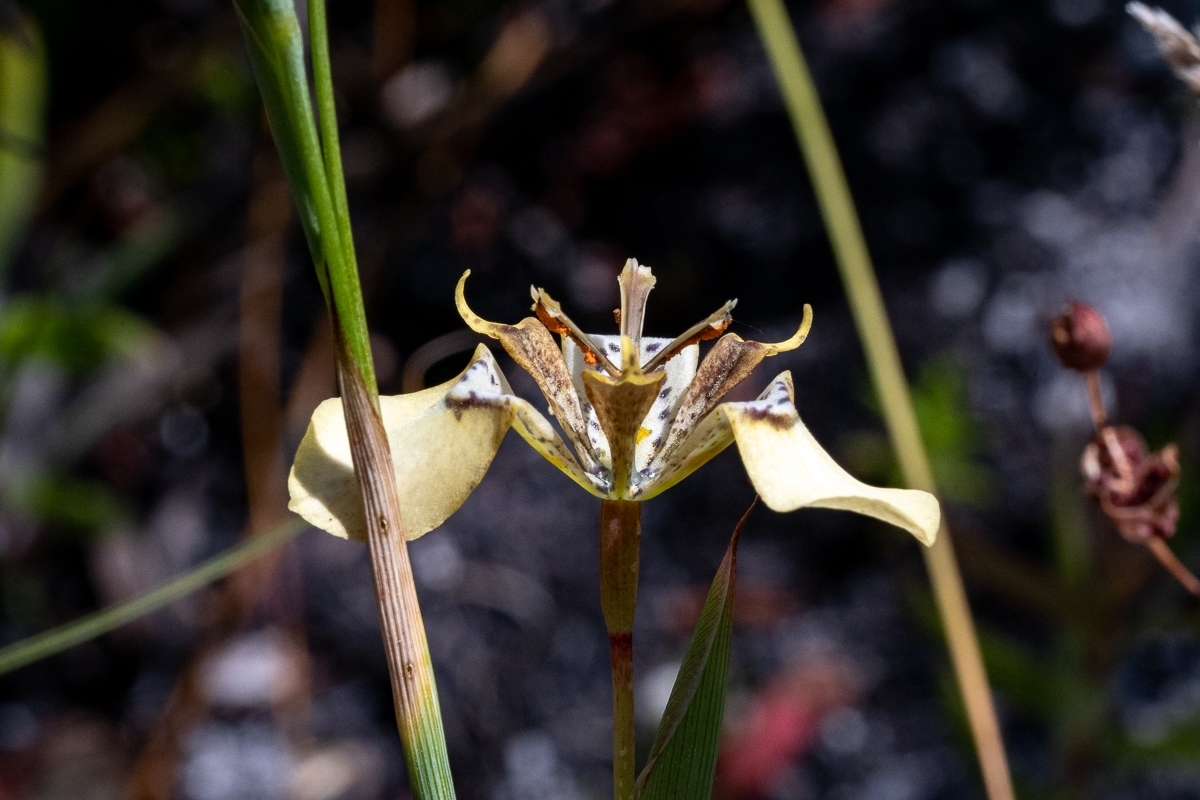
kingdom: Plantae
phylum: Tracheophyta
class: Liliopsida
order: Asparagales
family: Iridaceae
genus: Moraea
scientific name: Moraea deltoidea
